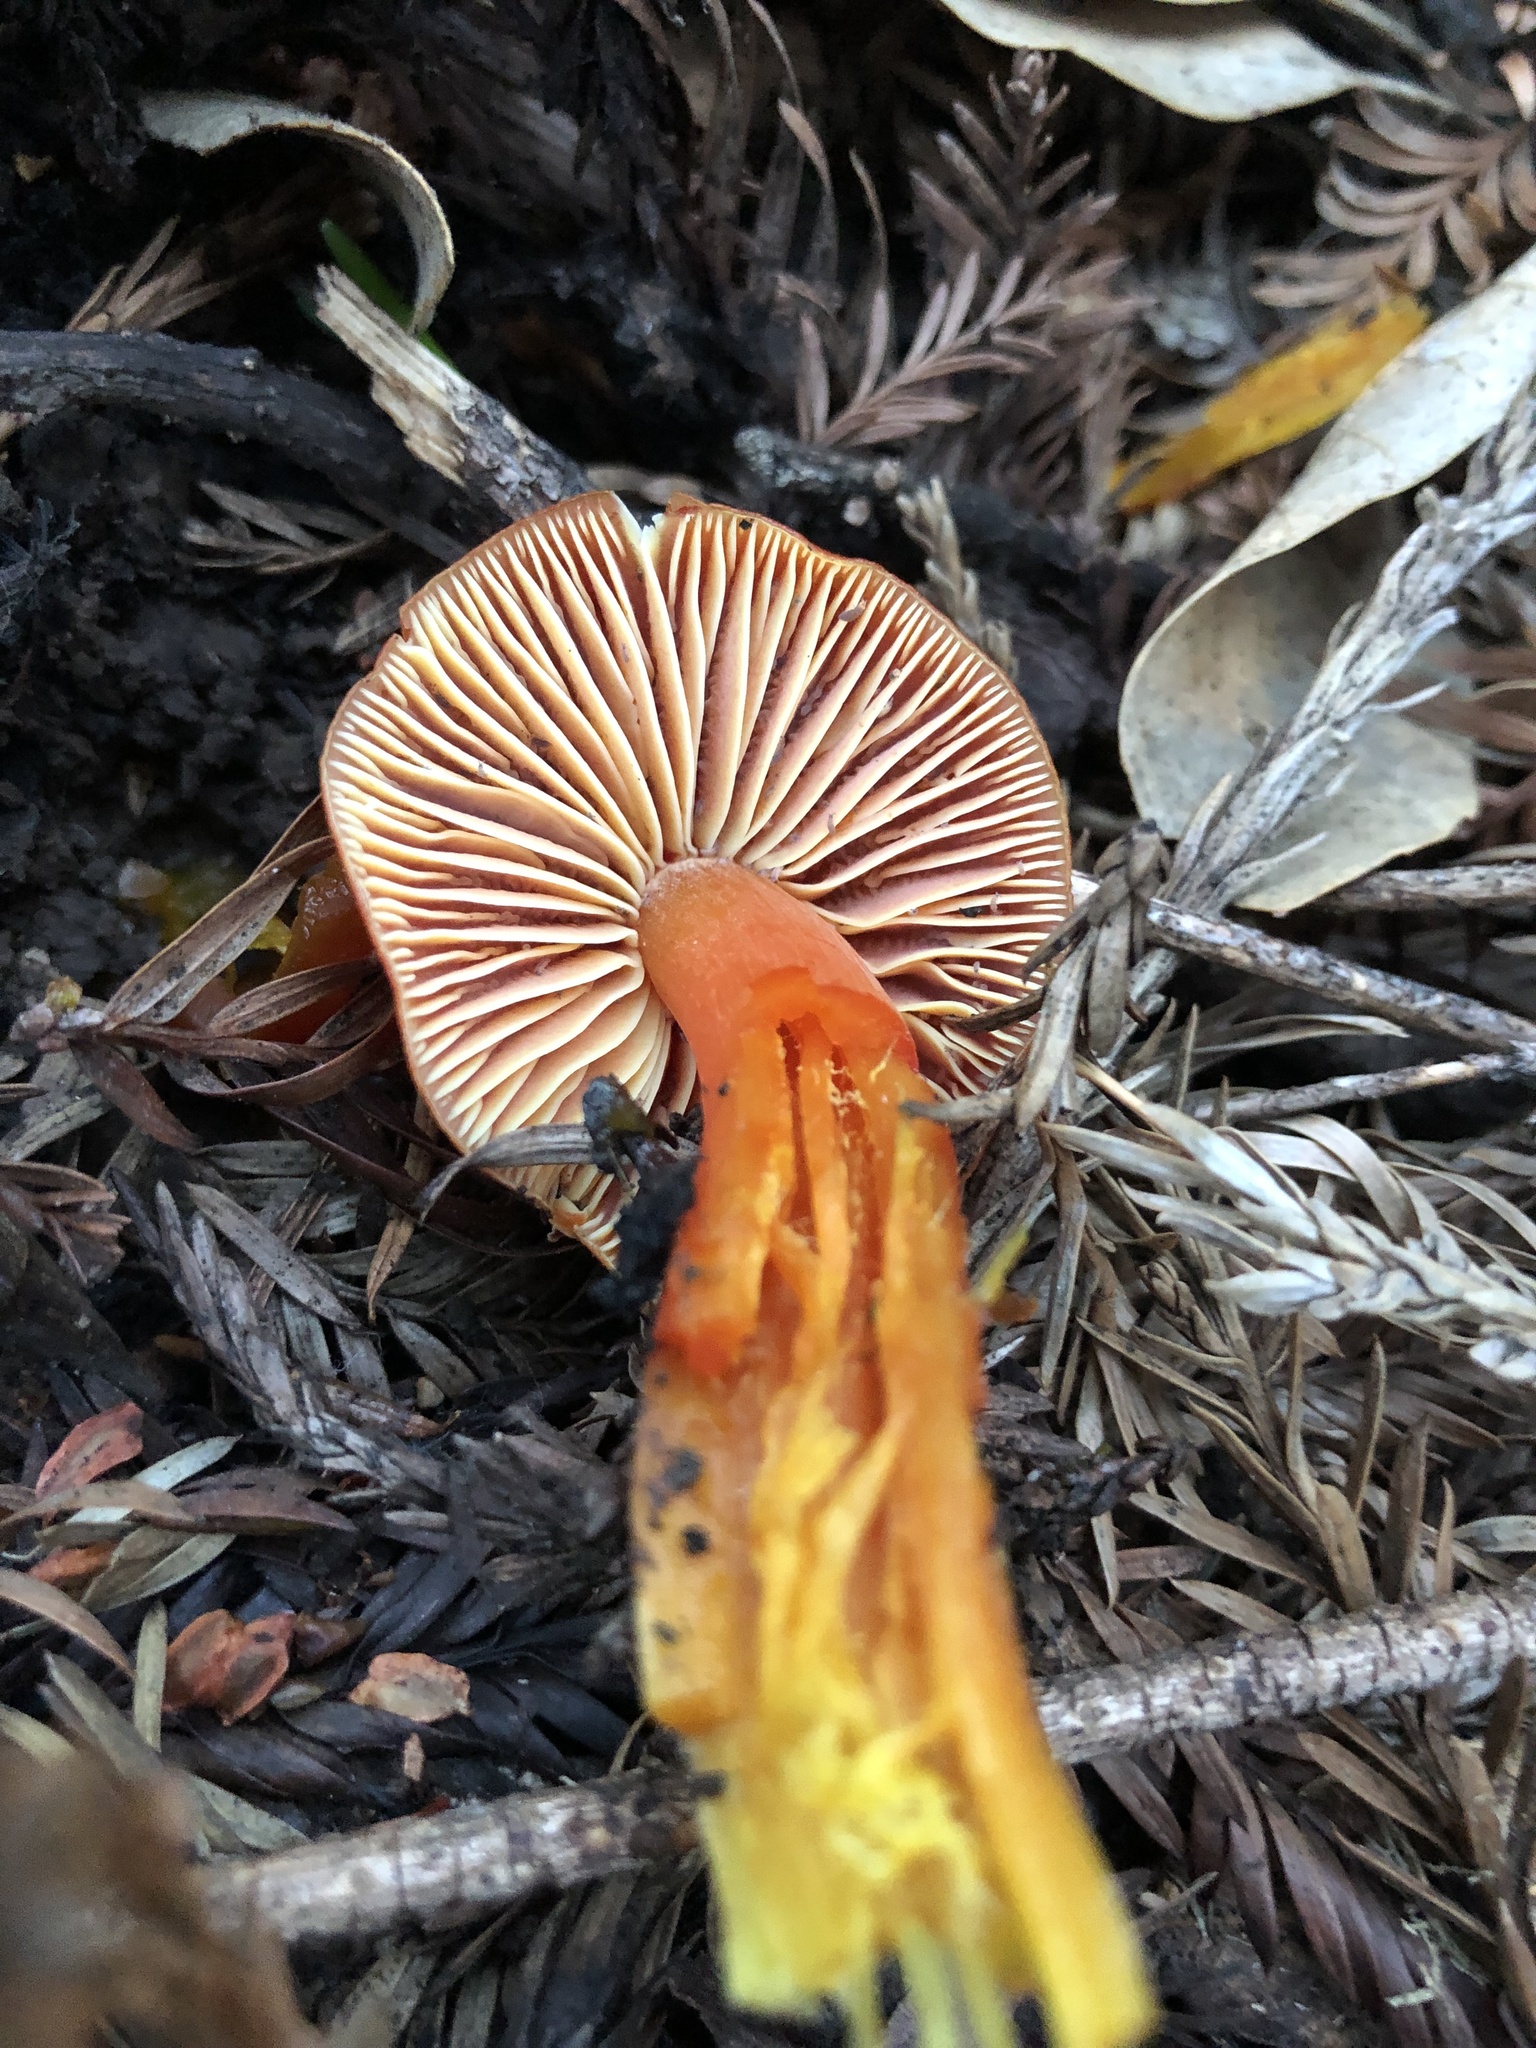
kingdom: Fungi
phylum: Basidiomycota
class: Agaricomycetes
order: Agaricales
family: Hygrophoraceae
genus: Hygrocybe
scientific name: Hygrocybe coccinea
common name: Scarlet hood
